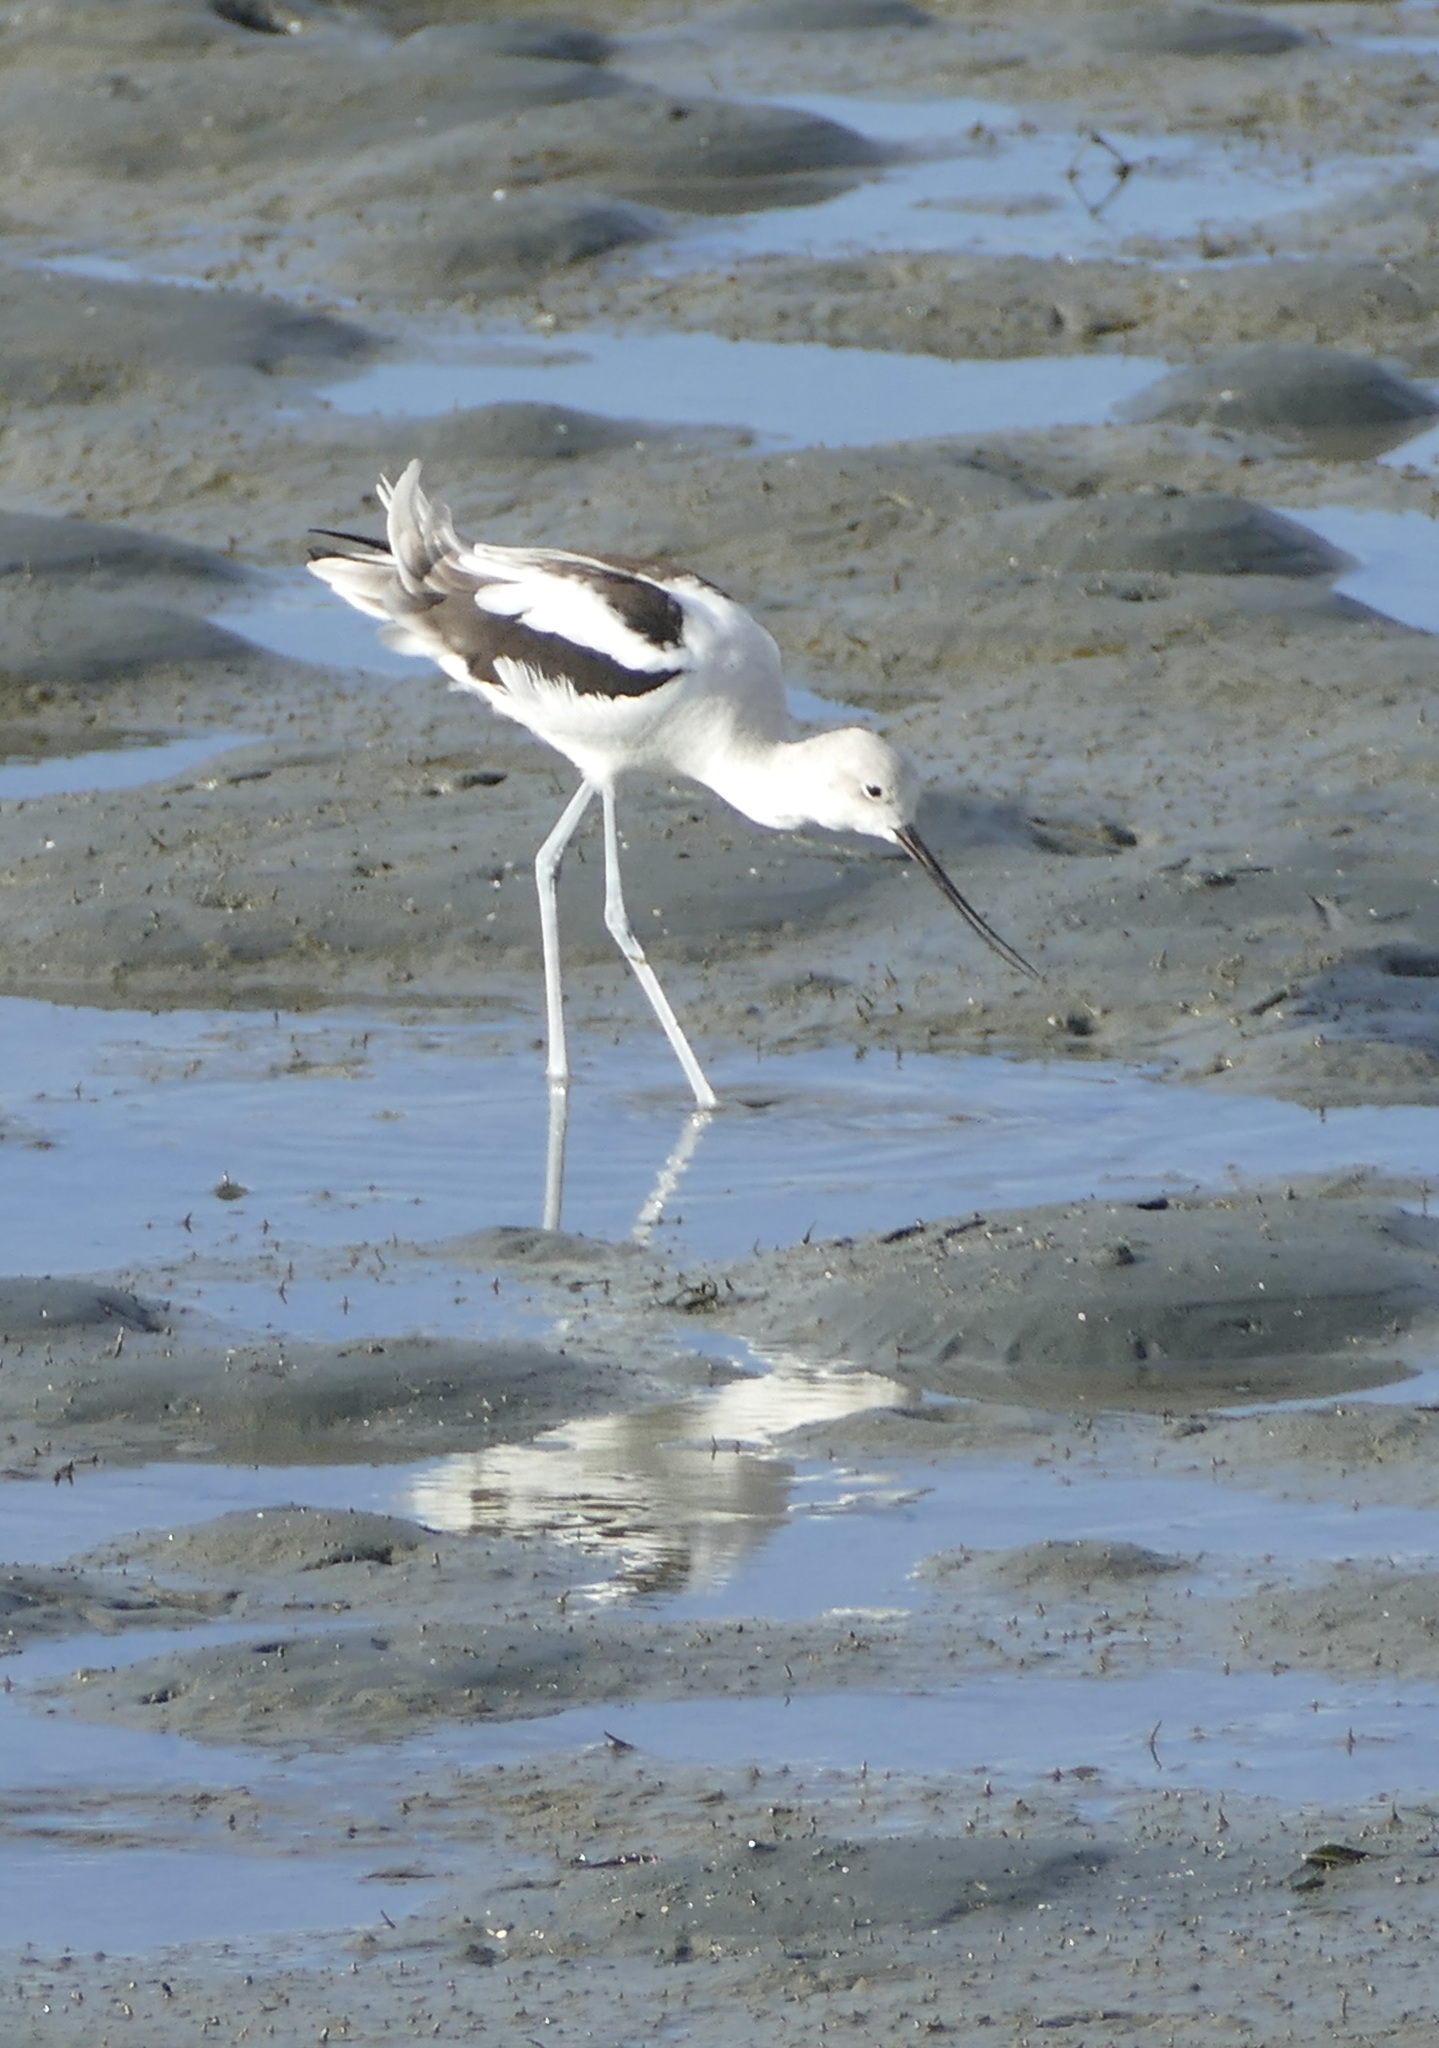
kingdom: Animalia
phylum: Chordata
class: Aves
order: Charadriiformes
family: Recurvirostridae
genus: Recurvirostra
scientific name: Recurvirostra americana
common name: American avocet
